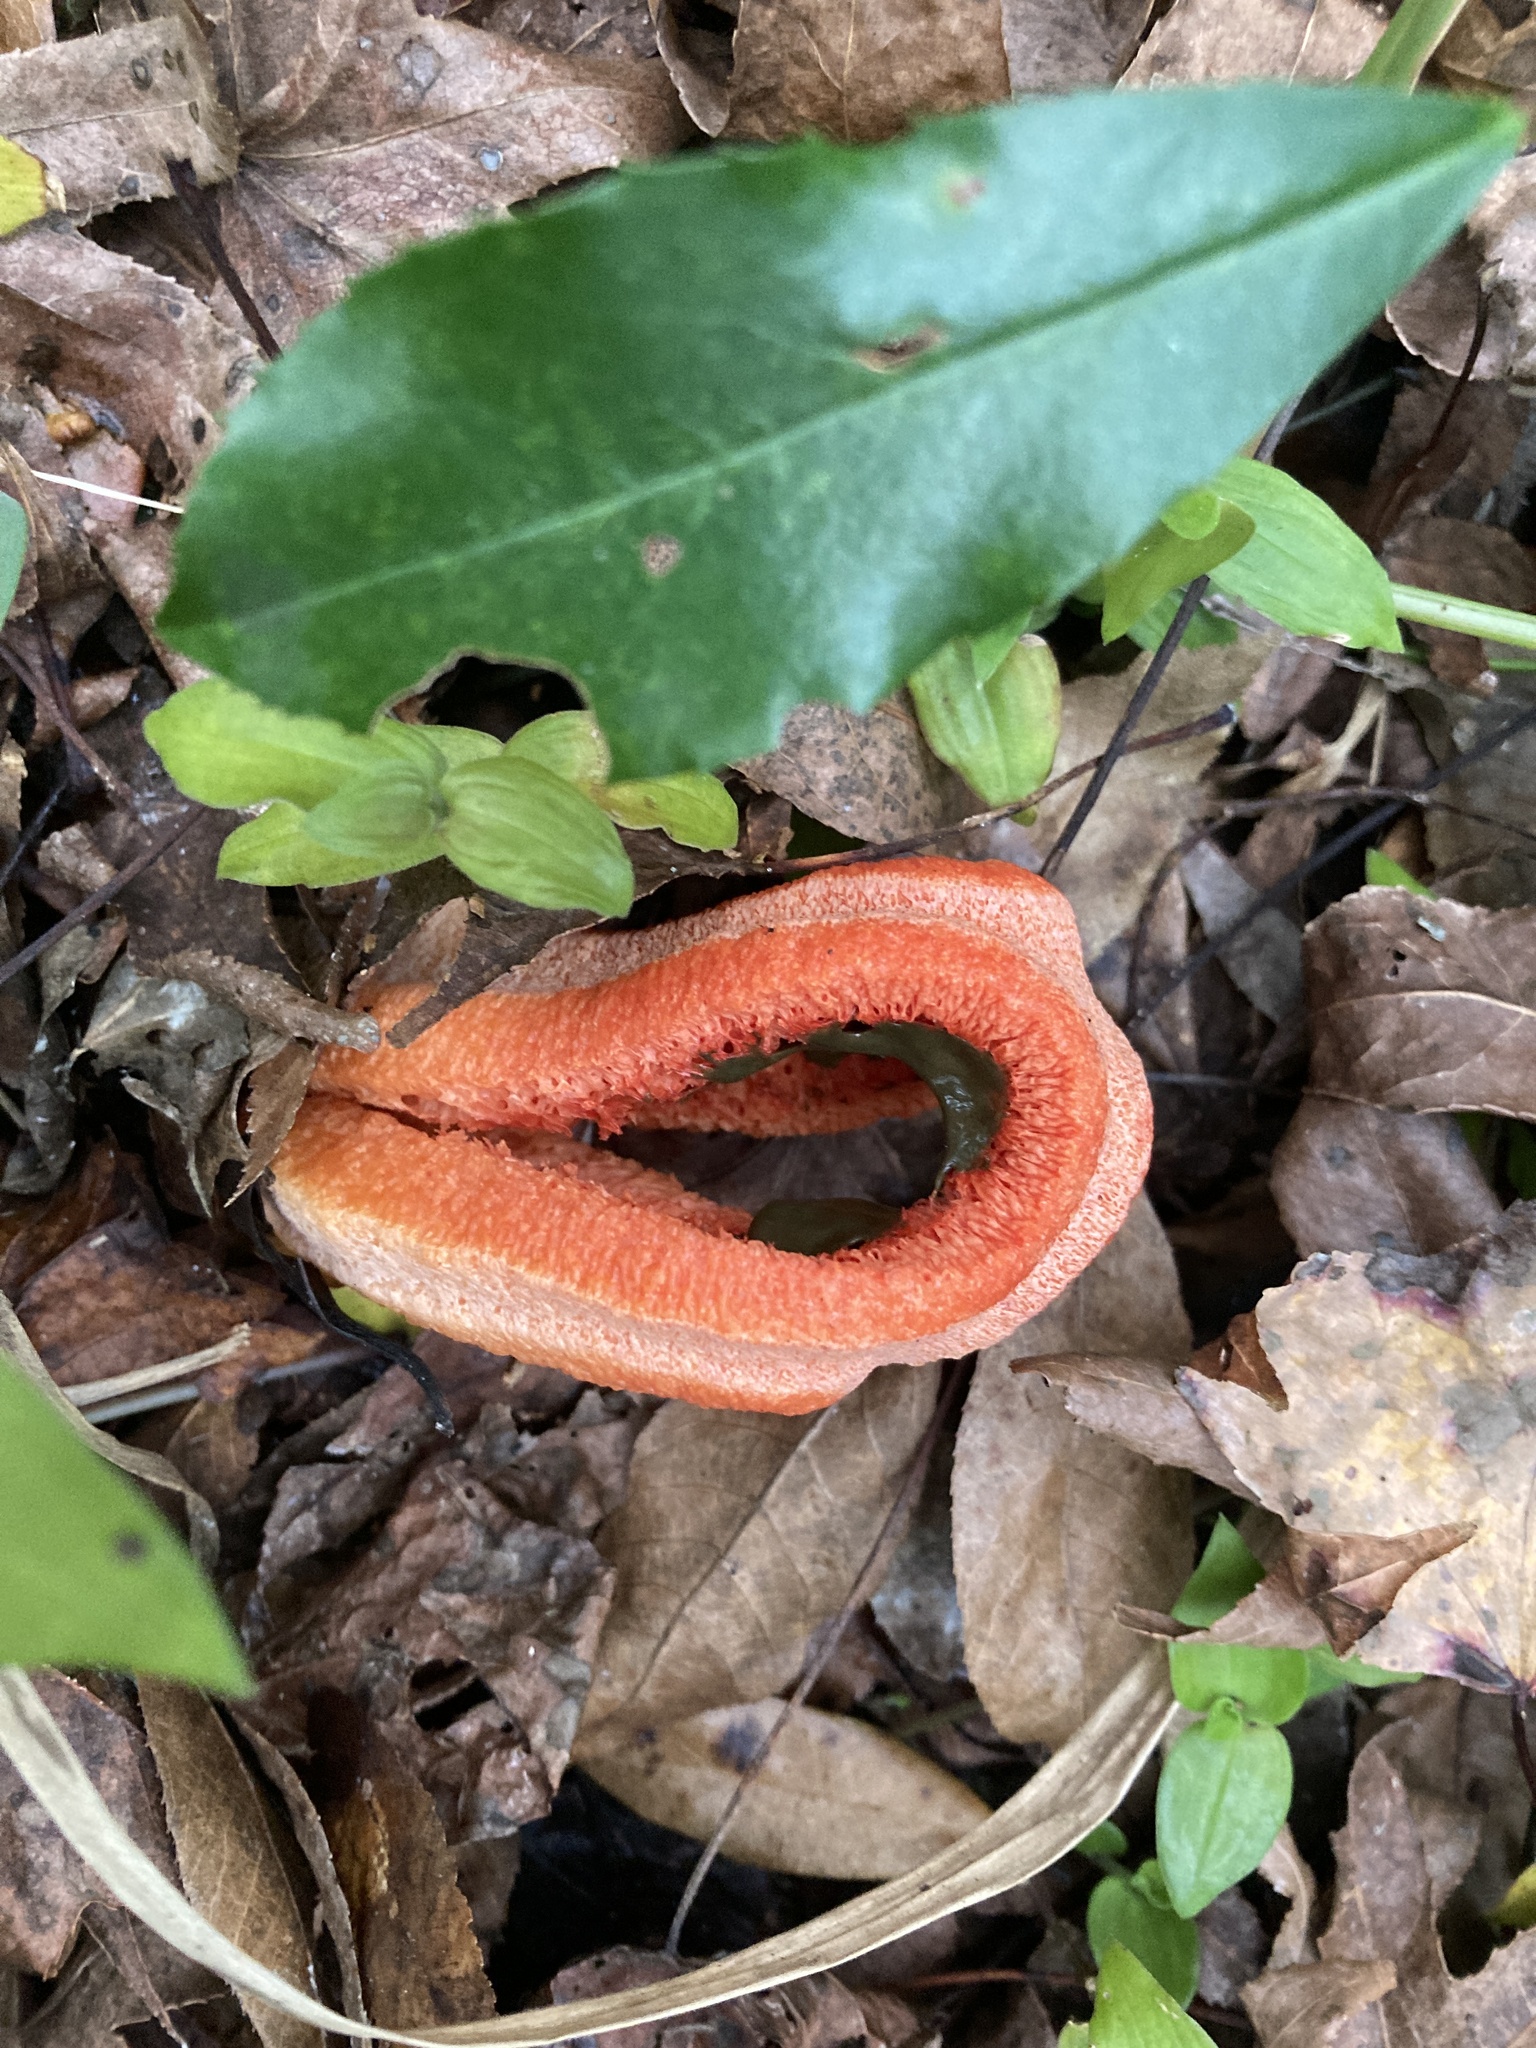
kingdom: Fungi
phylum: Basidiomycota
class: Agaricomycetes
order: Phallales
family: Phallaceae
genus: Clathrus
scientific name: Clathrus columnatus
